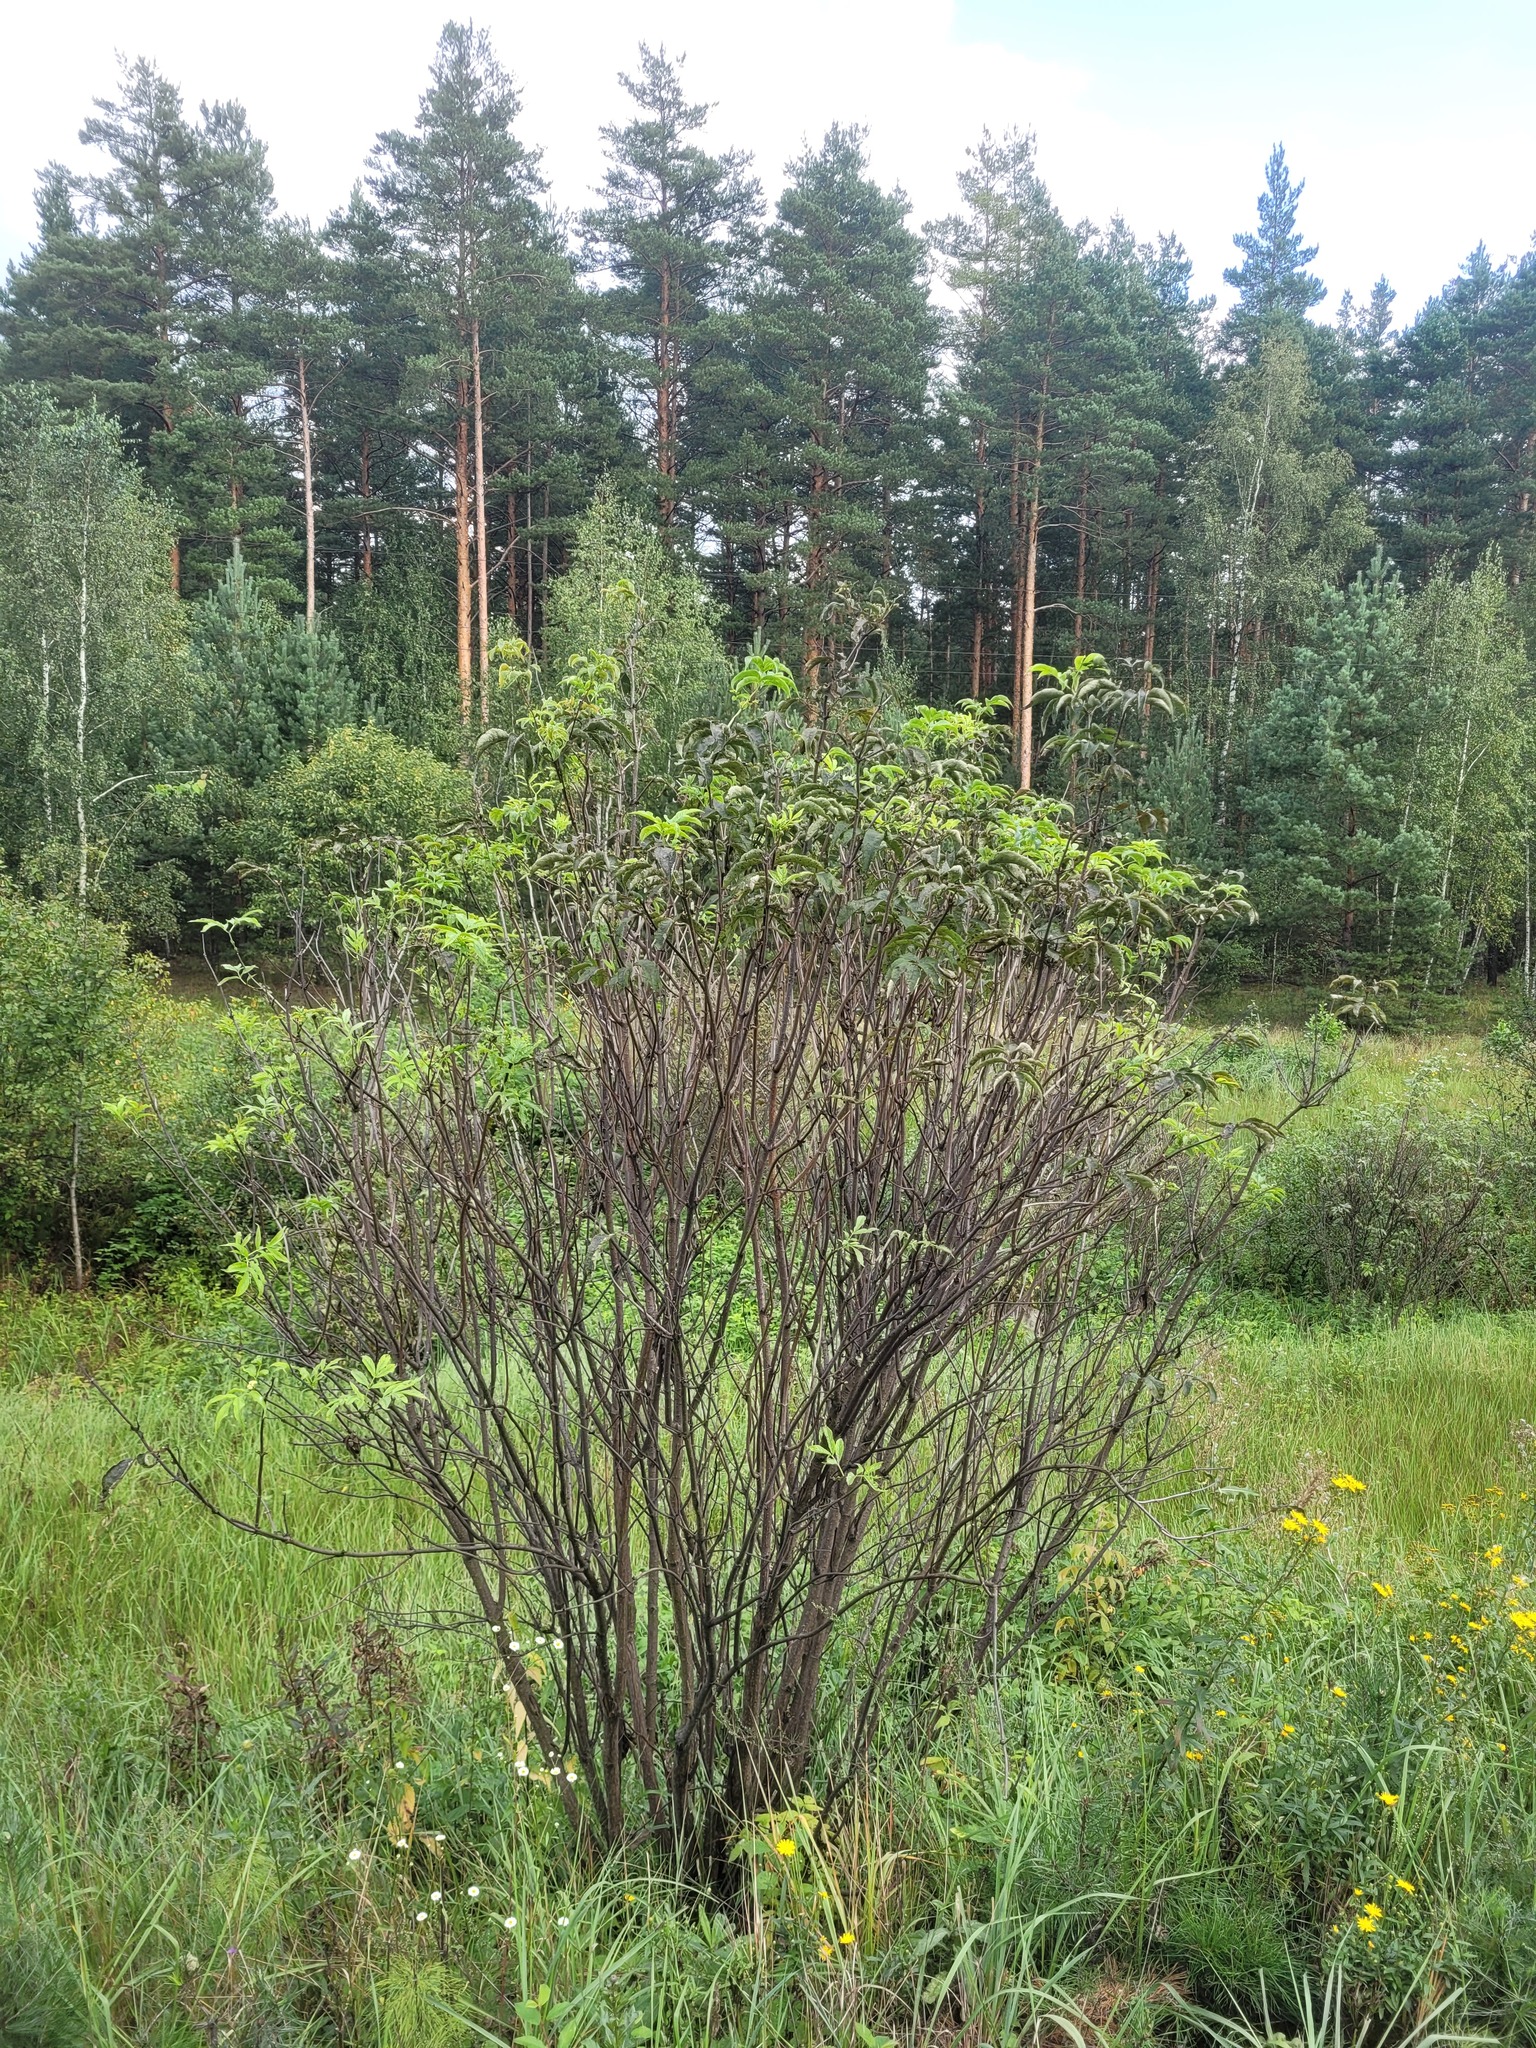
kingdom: Plantae
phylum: Tracheophyta
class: Magnoliopsida
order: Dipsacales
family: Viburnaceae
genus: Sambucus
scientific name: Sambucus racemosa
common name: Red-berried elder
